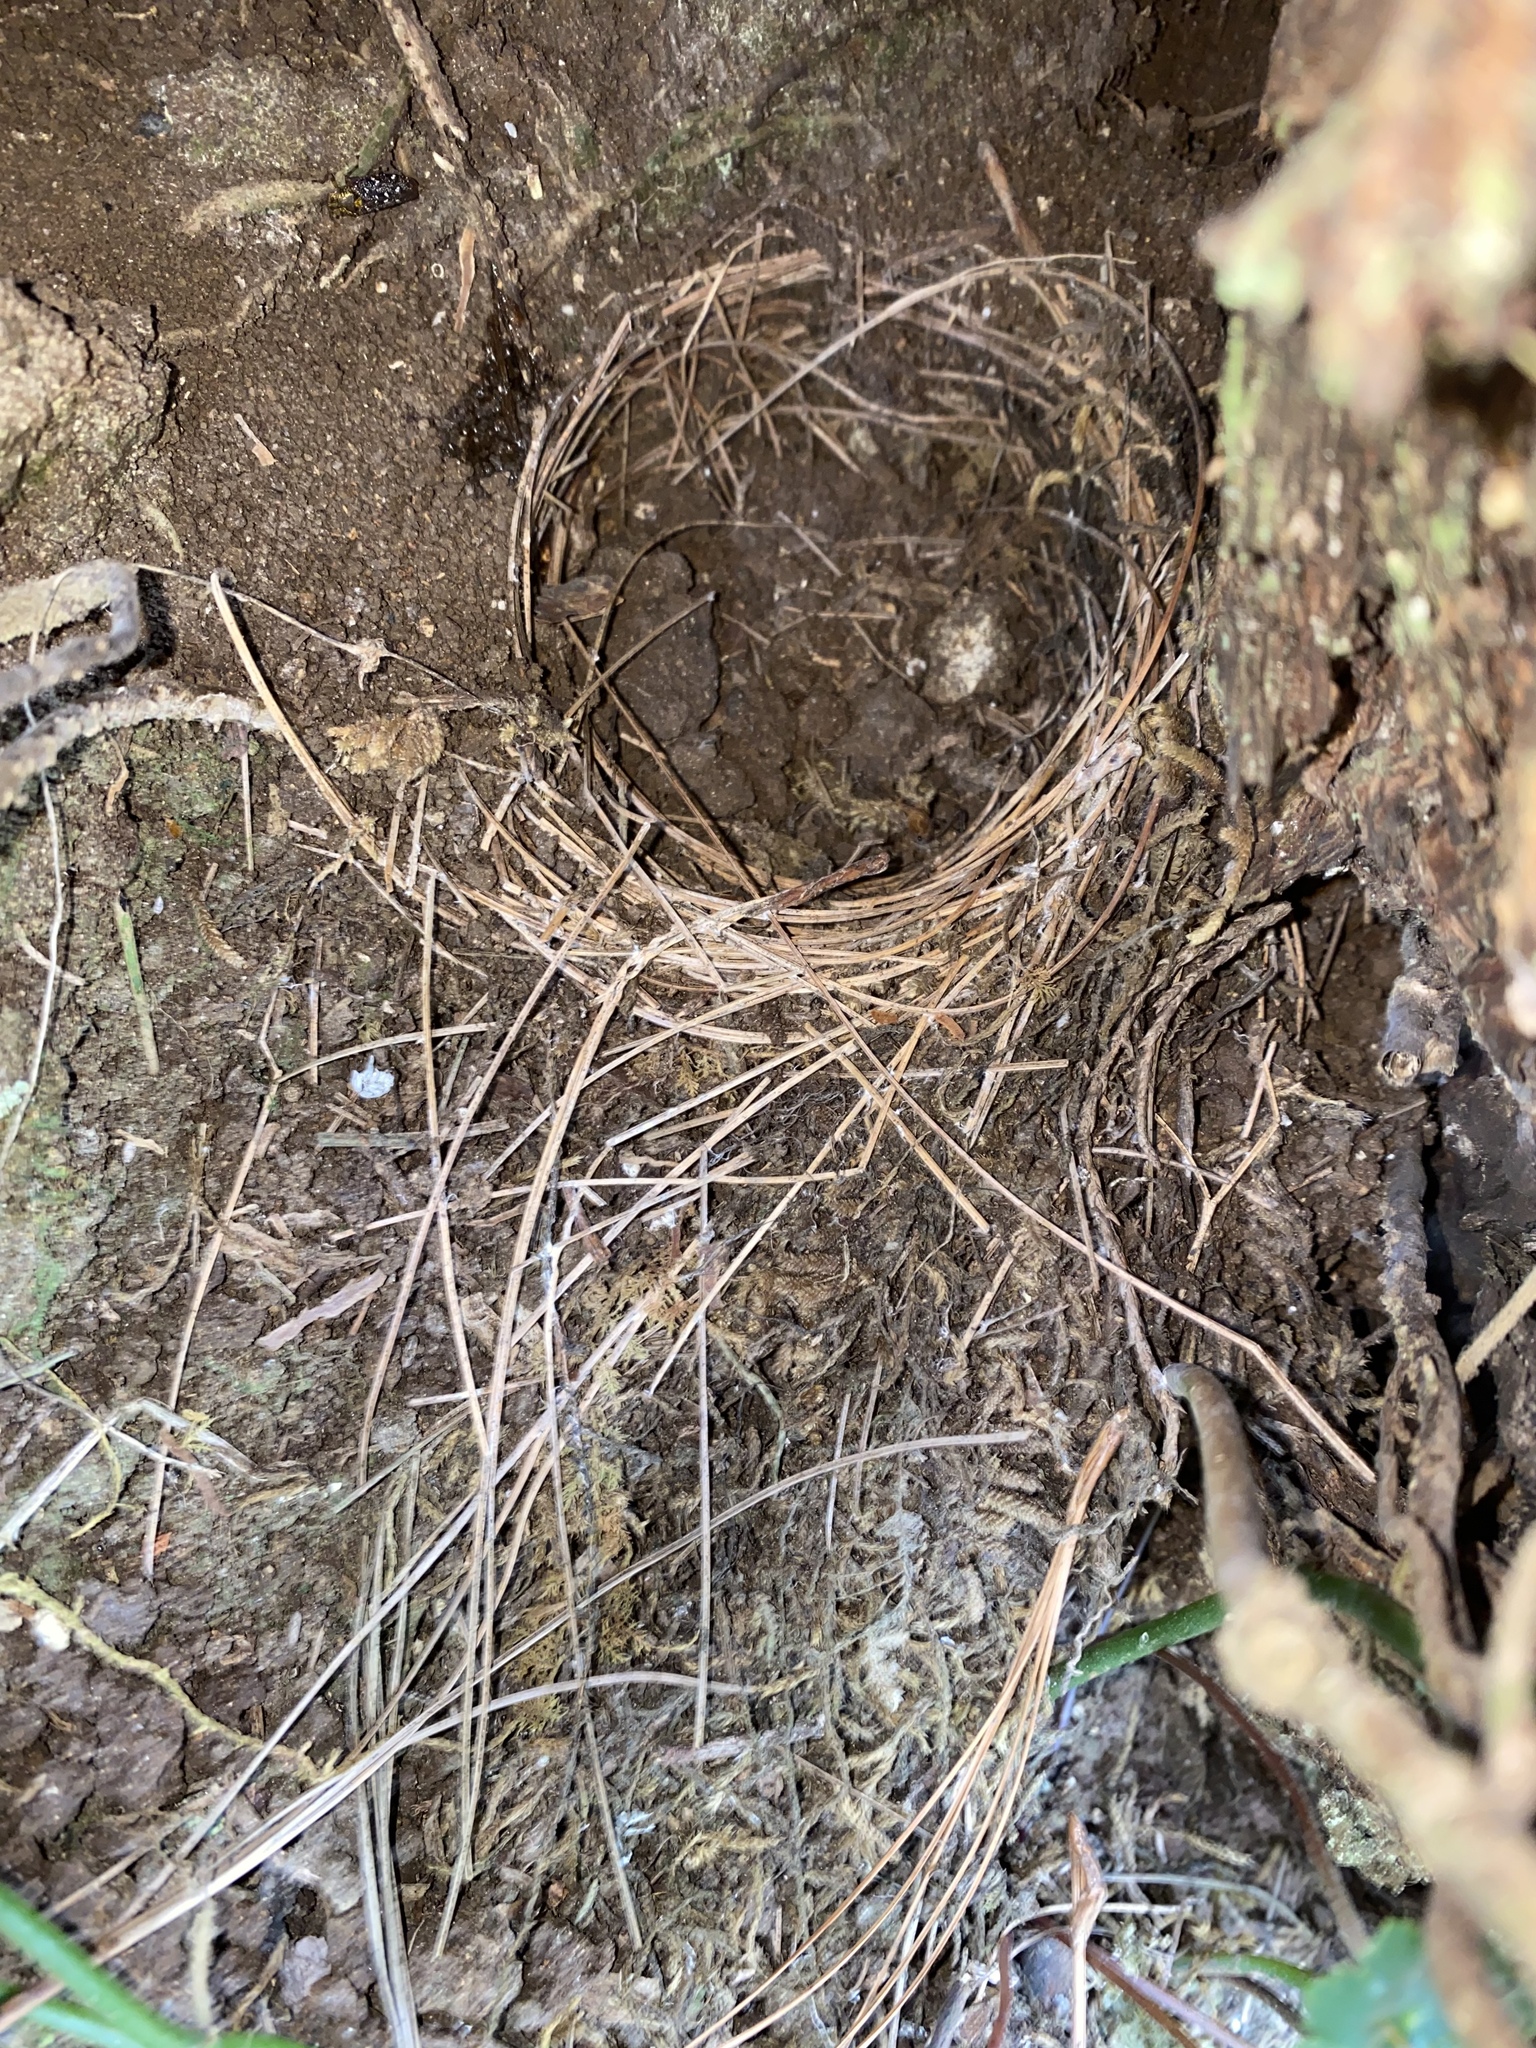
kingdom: Animalia
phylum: Chordata
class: Aves
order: Passeriformes
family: Turdidae
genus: Myadestes
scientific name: Myadestes occidentalis
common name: Brown-backed solitaire
